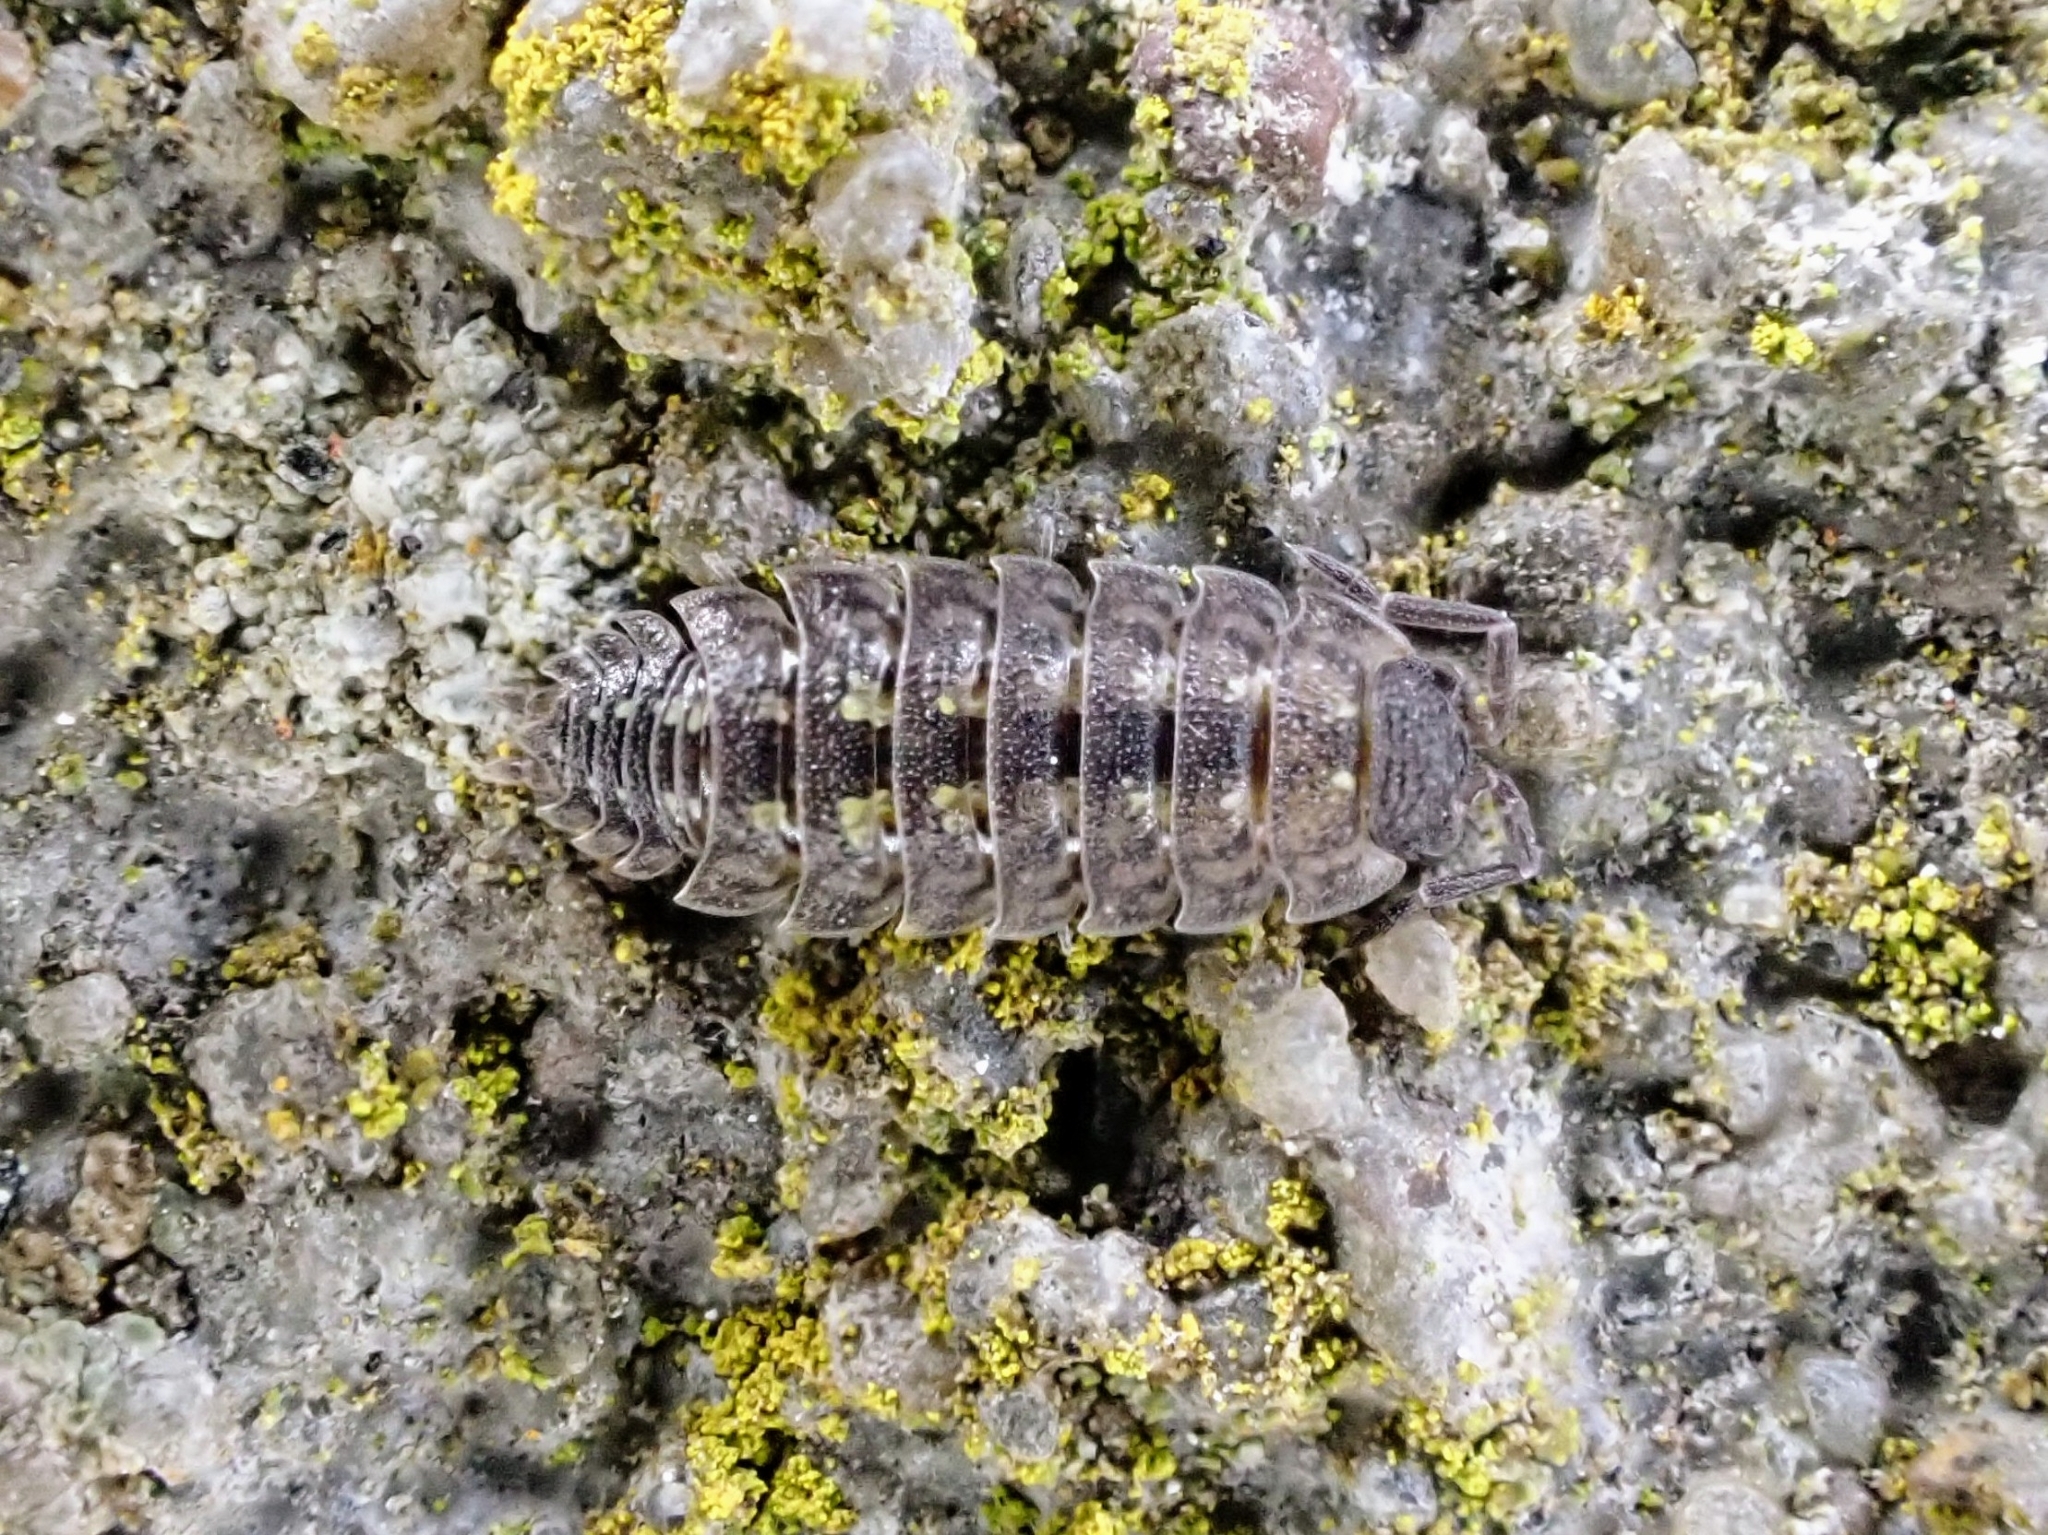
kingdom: Animalia
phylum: Arthropoda
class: Malacostraca
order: Isopoda
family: Porcellionidae
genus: Porcellio
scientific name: Porcellio spinicornis
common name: Painted woodlouse
